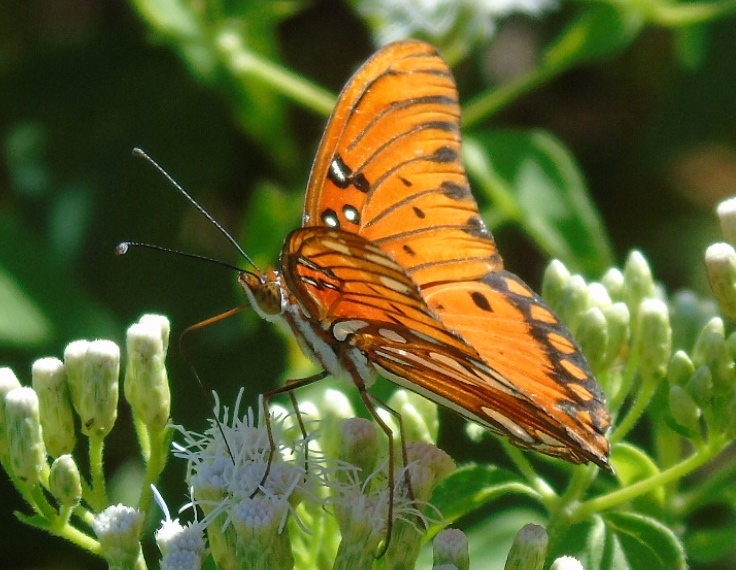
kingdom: Animalia
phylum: Arthropoda
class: Insecta
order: Lepidoptera
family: Nymphalidae
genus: Dione
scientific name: Dione vanillae
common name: Gulf fritillary
